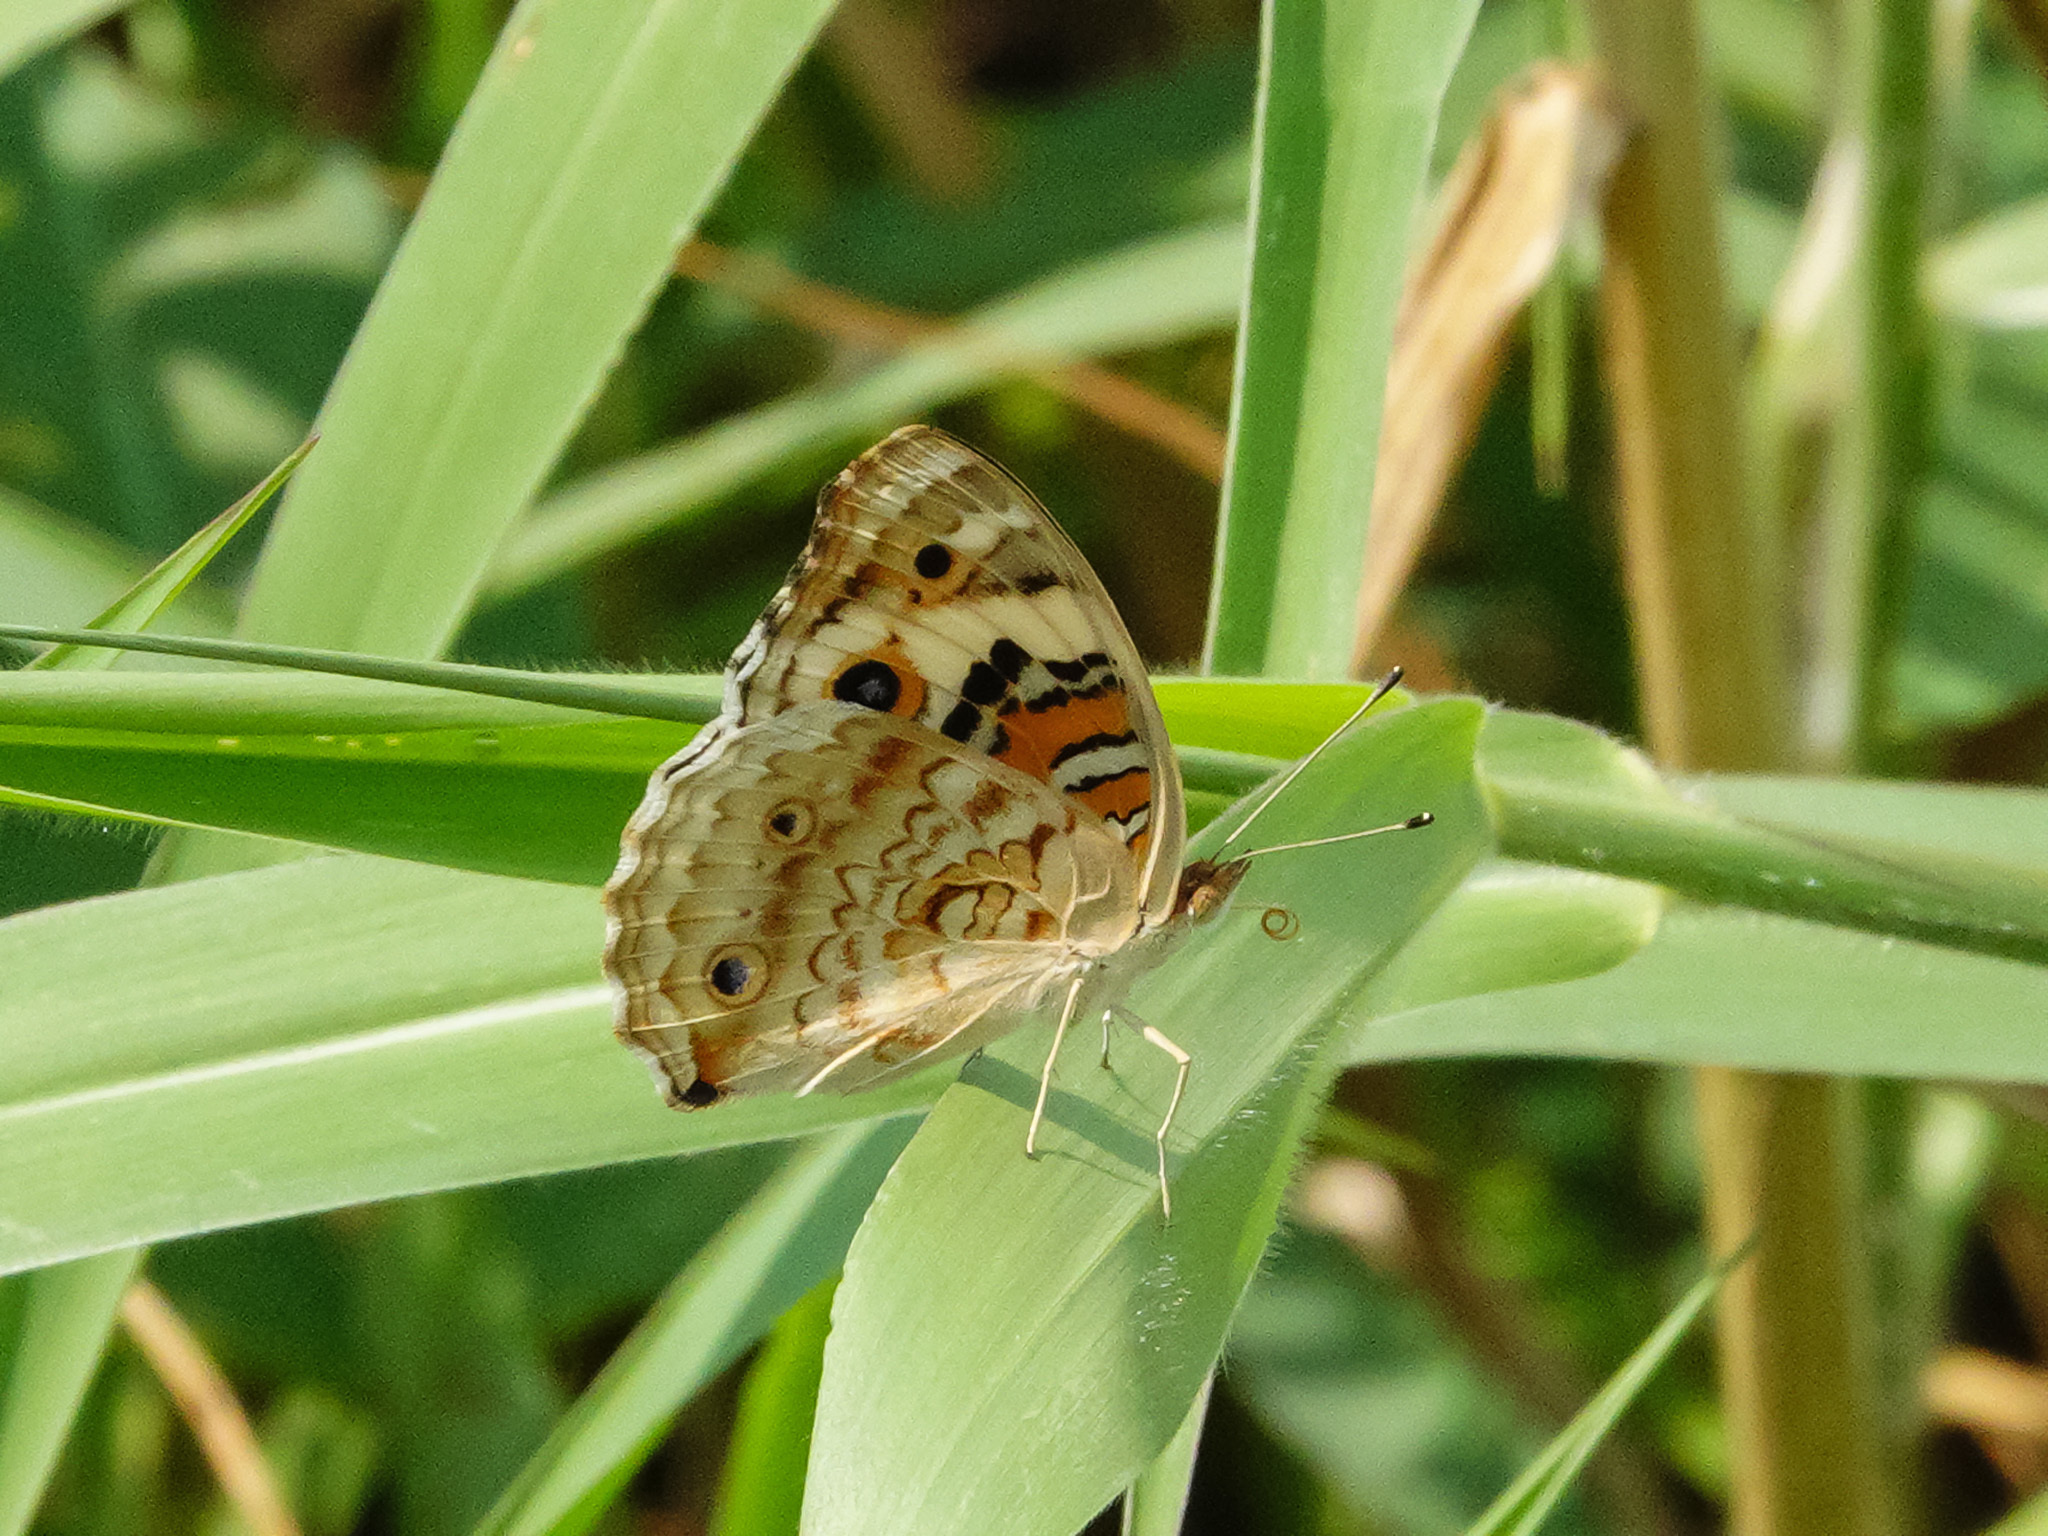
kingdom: Animalia
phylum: Arthropoda
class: Insecta
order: Lepidoptera
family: Nymphalidae
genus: Junonia
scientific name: Junonia orithya
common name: Blue pansy
